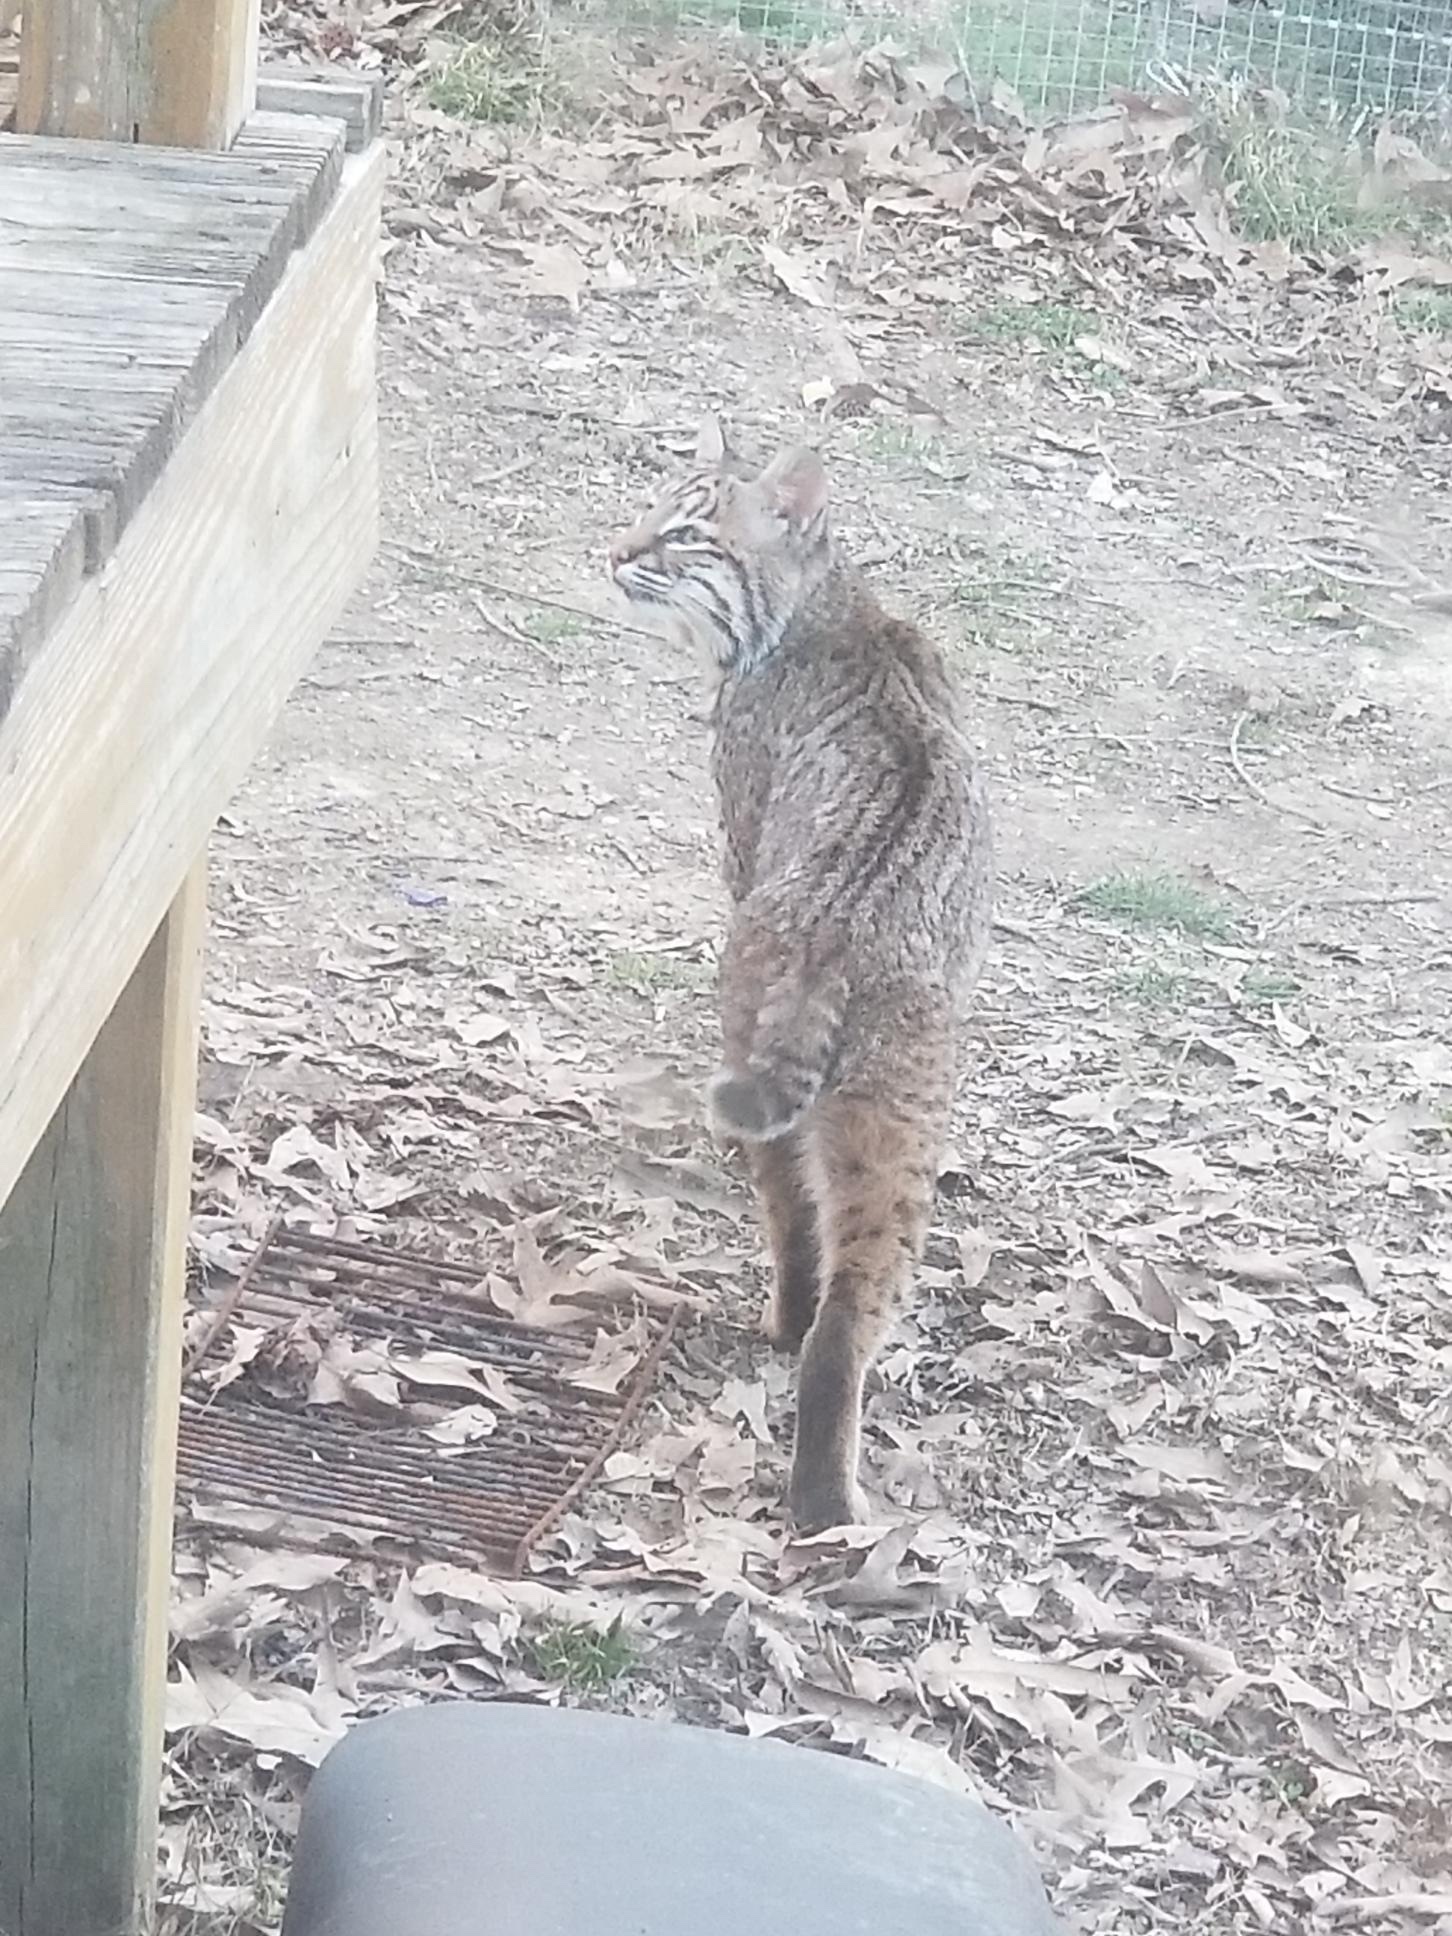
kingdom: Animalia
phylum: Chordata
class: Mammalia
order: Carnivora
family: Felidae
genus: Lynx
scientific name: Lynx rufus
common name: Bobcat
